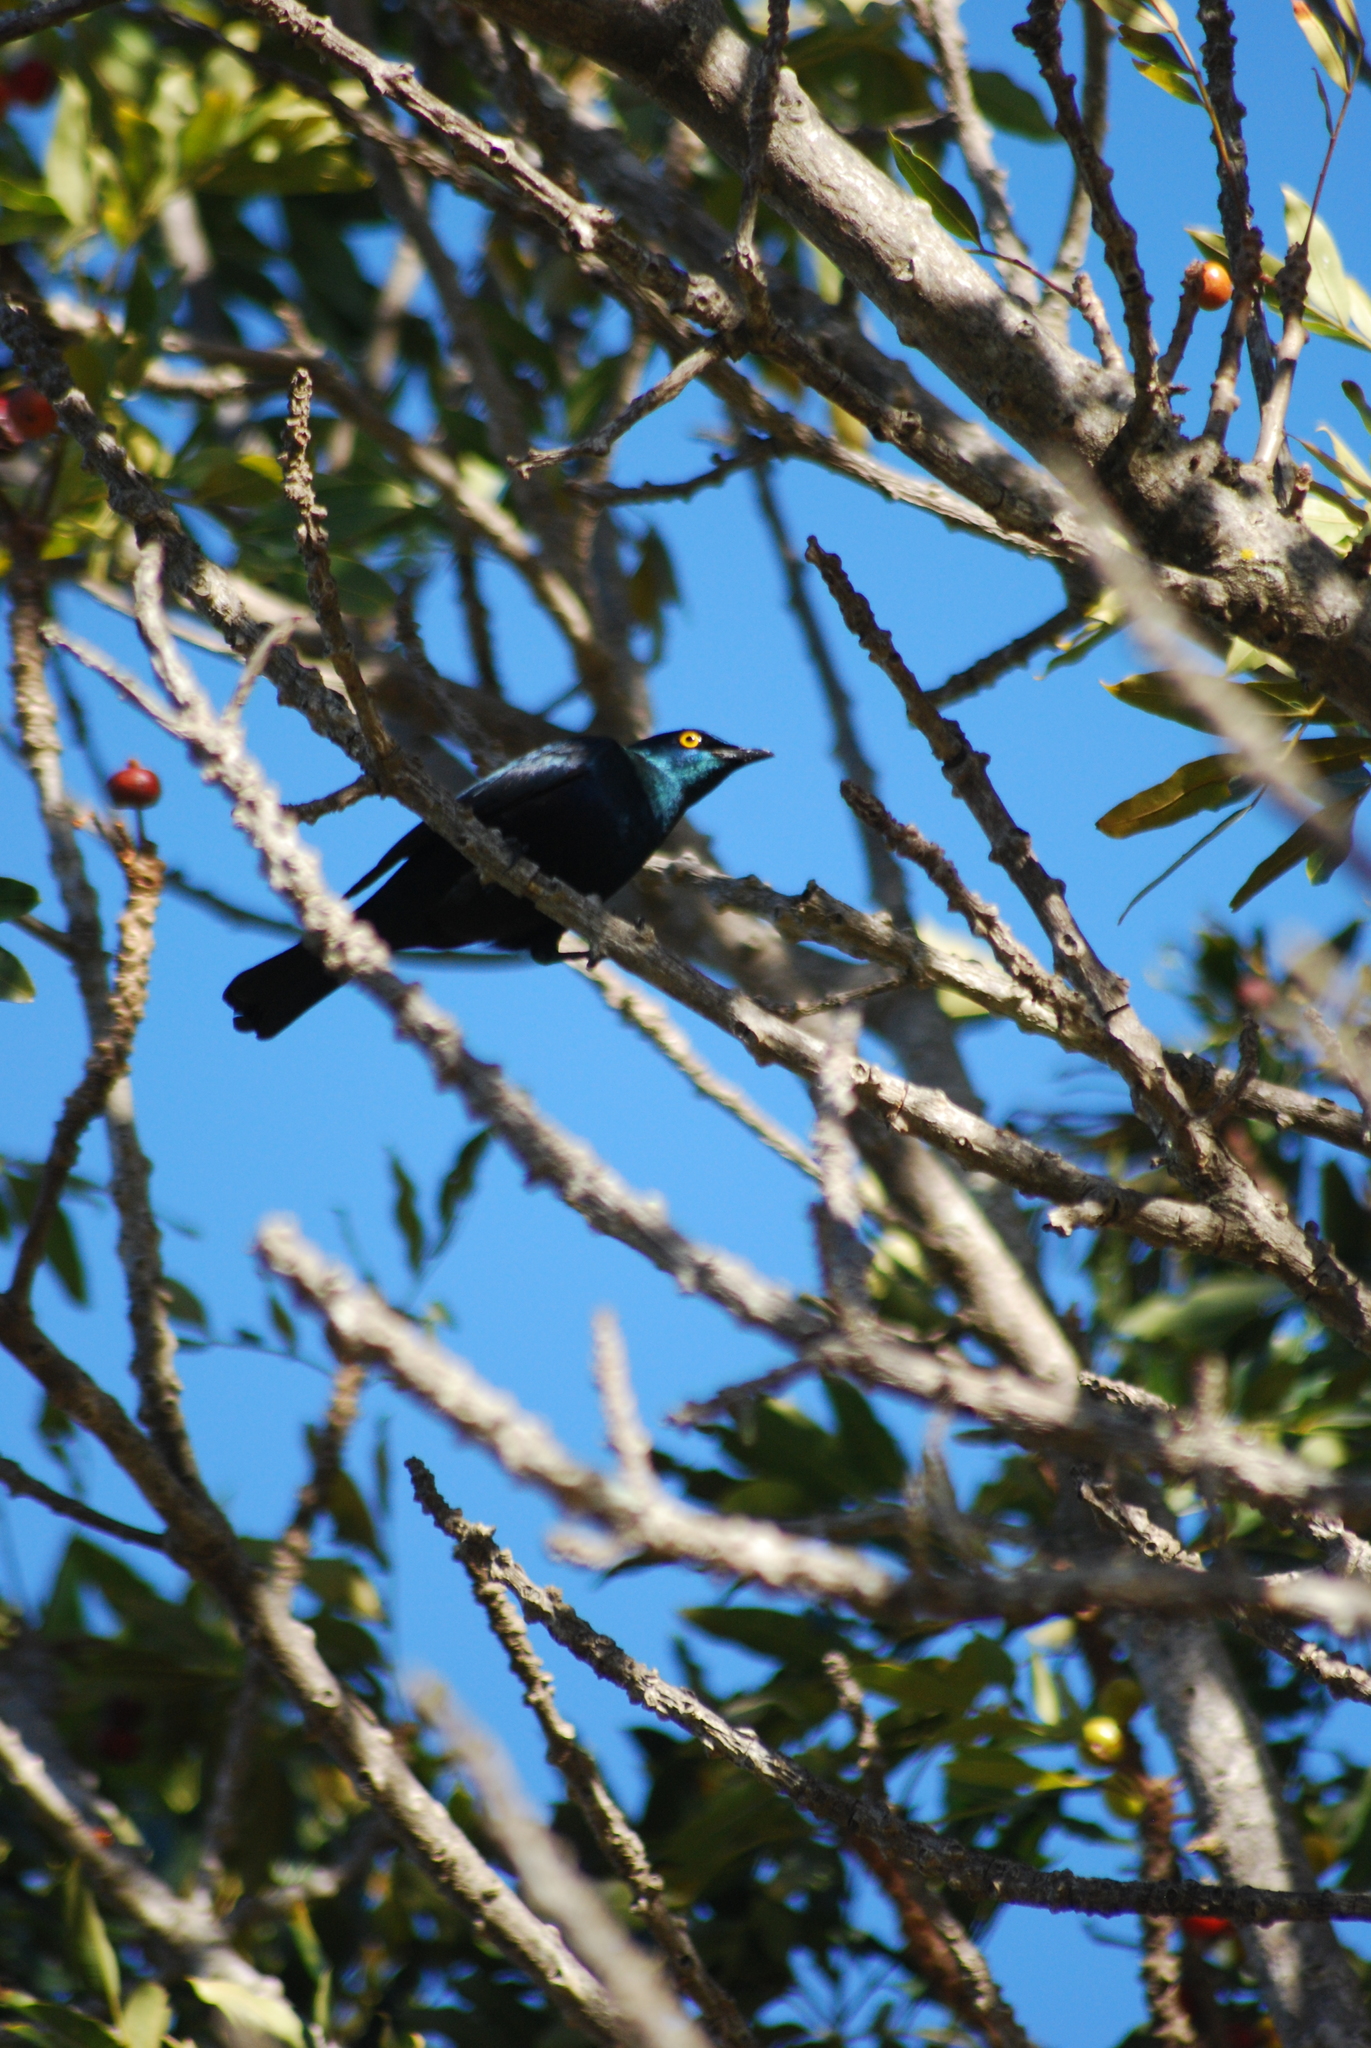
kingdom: Animalia
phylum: Chordata
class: Aves
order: Passeriformes
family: Sturnidae
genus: Notopholia
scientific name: Notopholia corrusca
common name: Black-bellied starling
